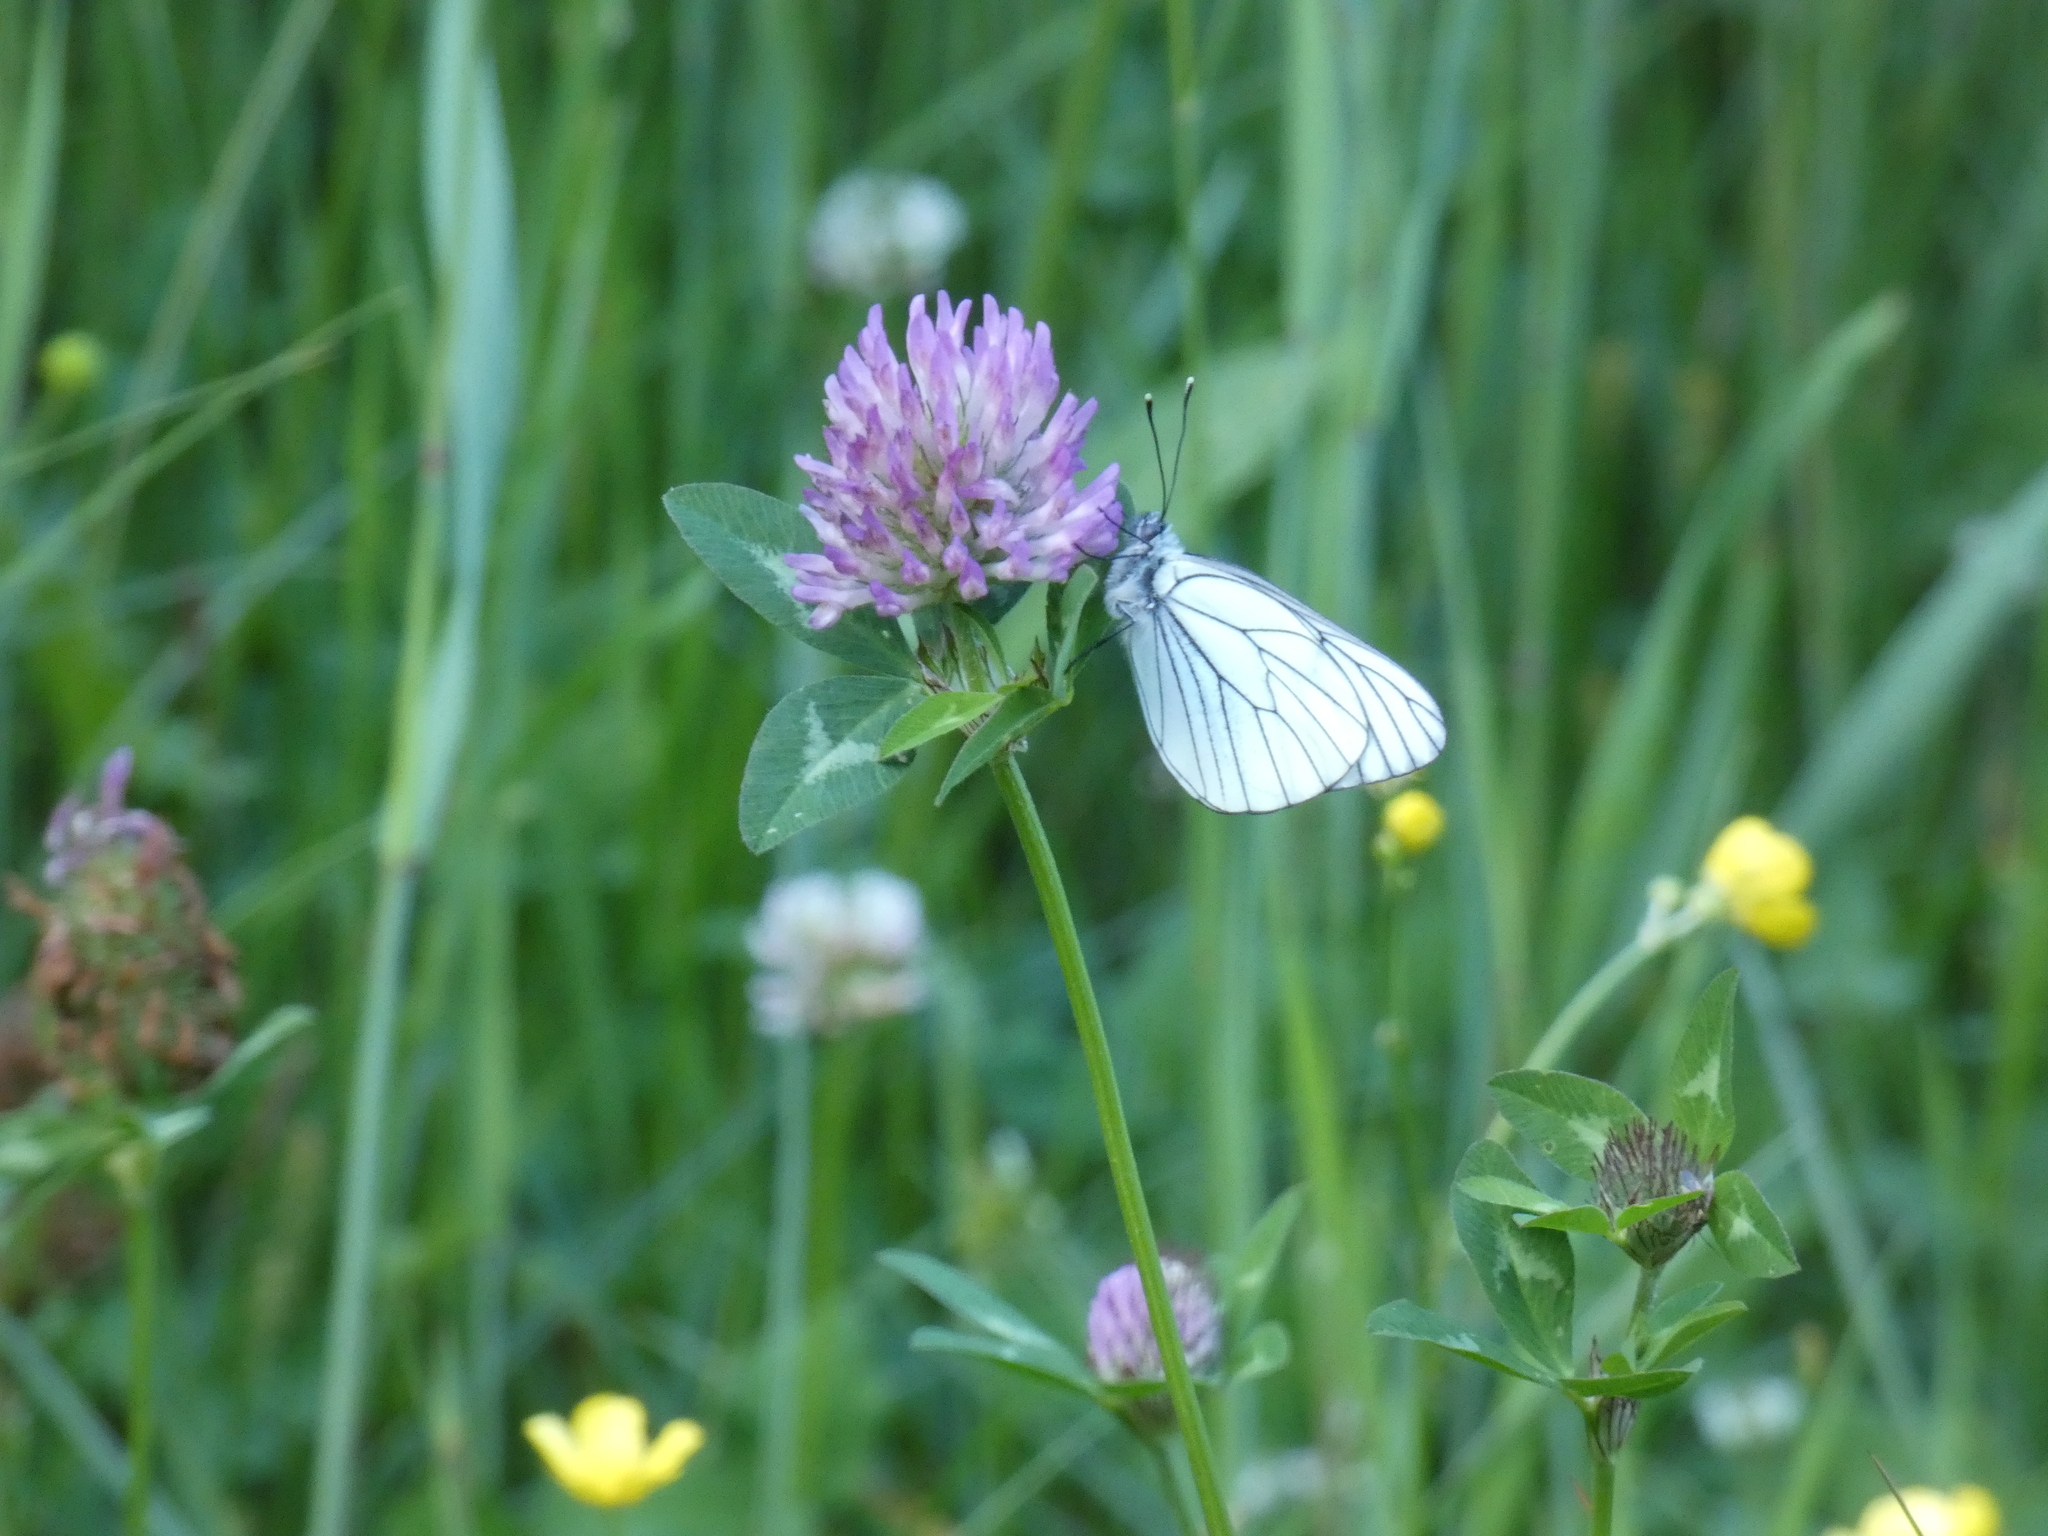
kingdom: Animalia
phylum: Arthropoda
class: Insecta
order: Lepidoptera
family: Pieridae
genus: Aporia
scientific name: Aporia crataegi
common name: Black-veined white
